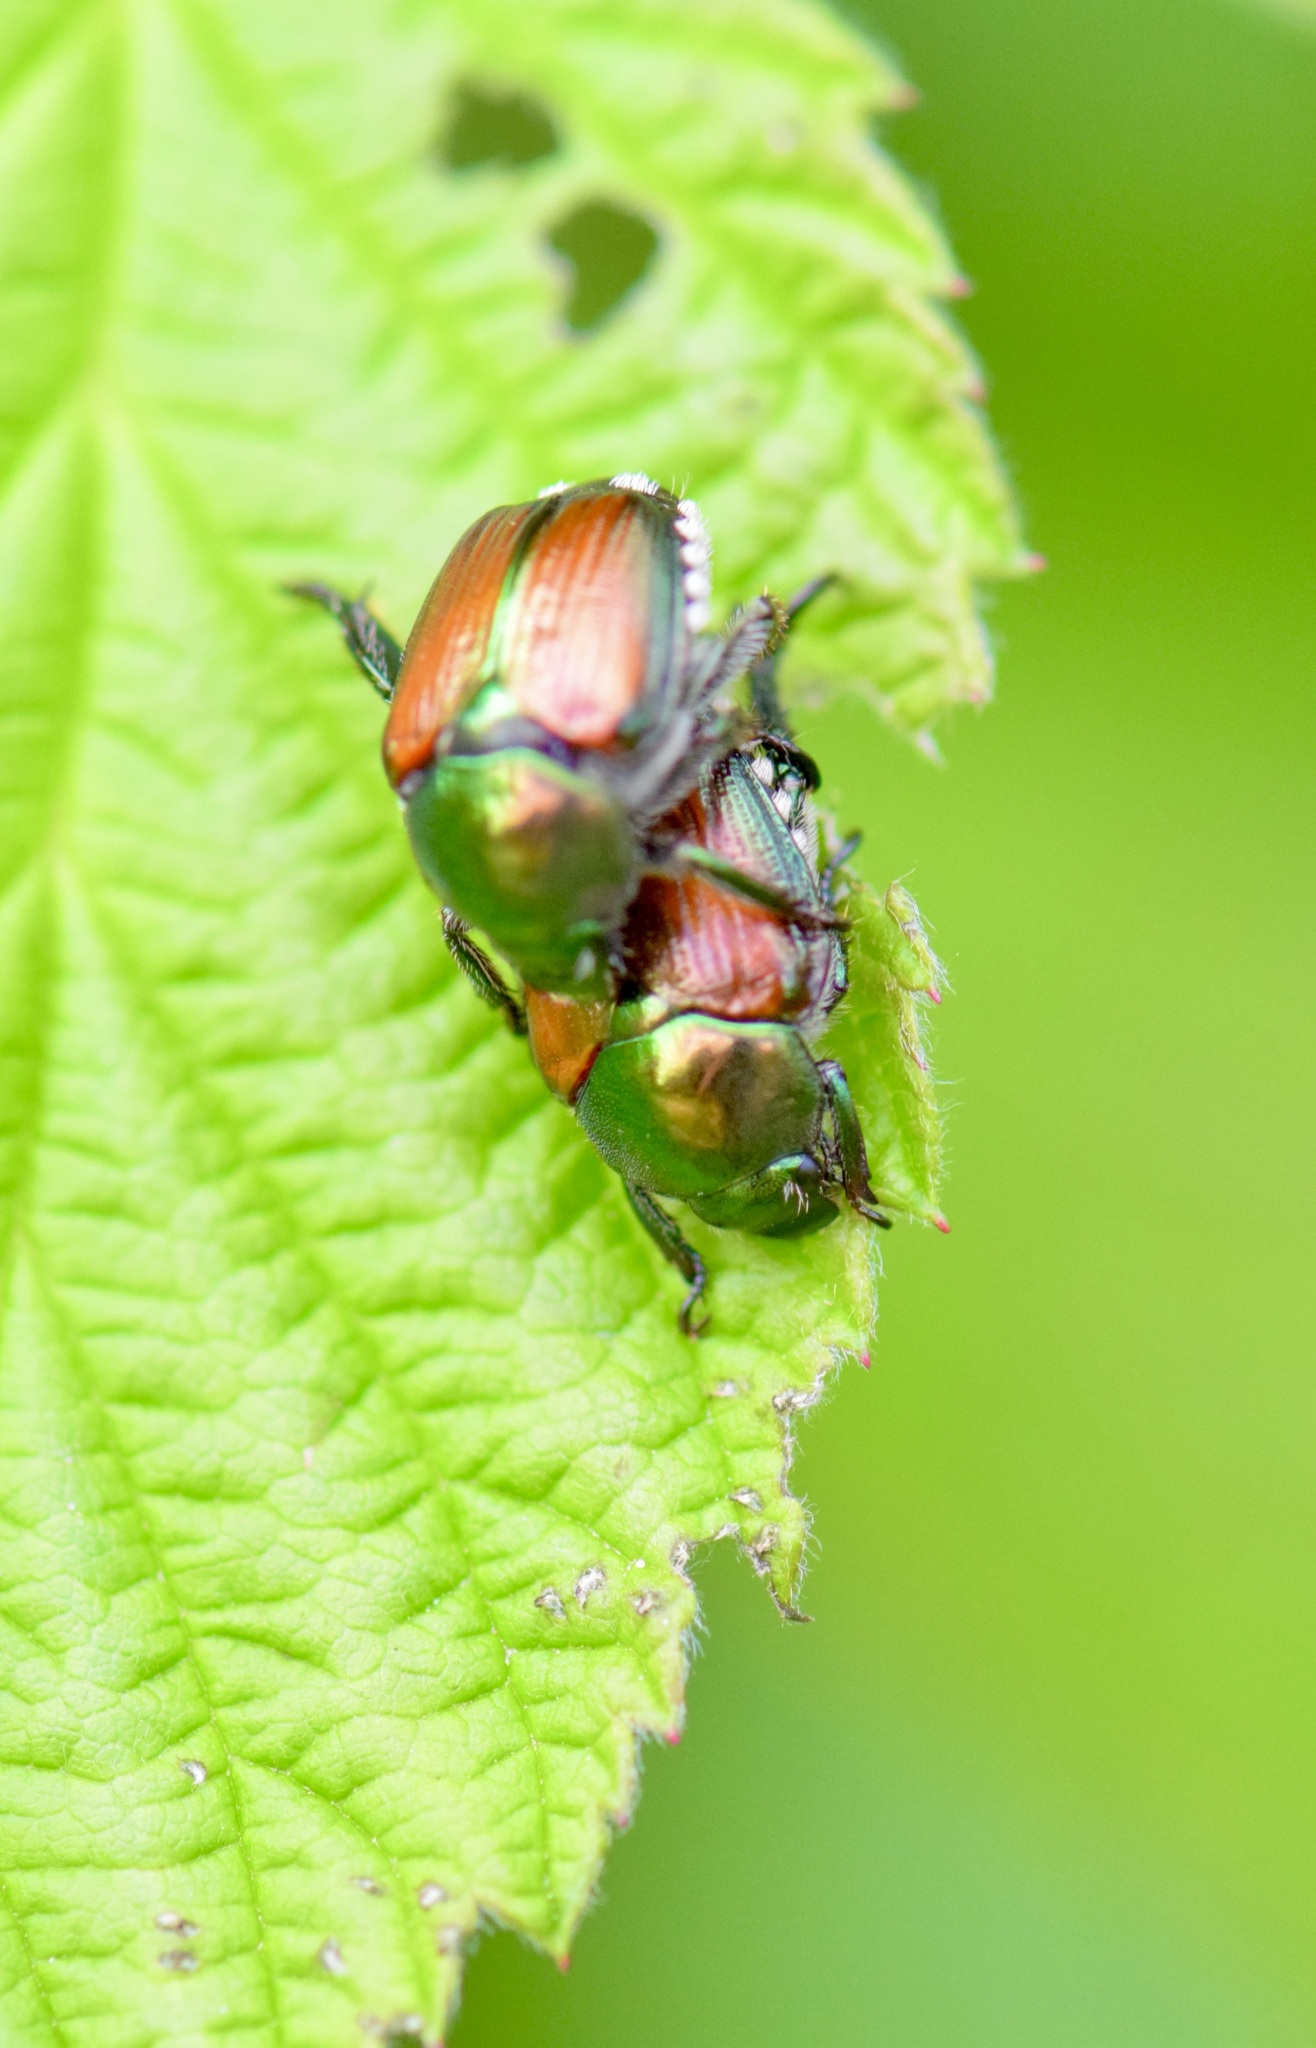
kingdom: Animalia
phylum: Arthropoda
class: Insecta
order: Coleoptera
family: Scarabaeidae
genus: Popillia
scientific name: Popillia japonica
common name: Japanese beetle
